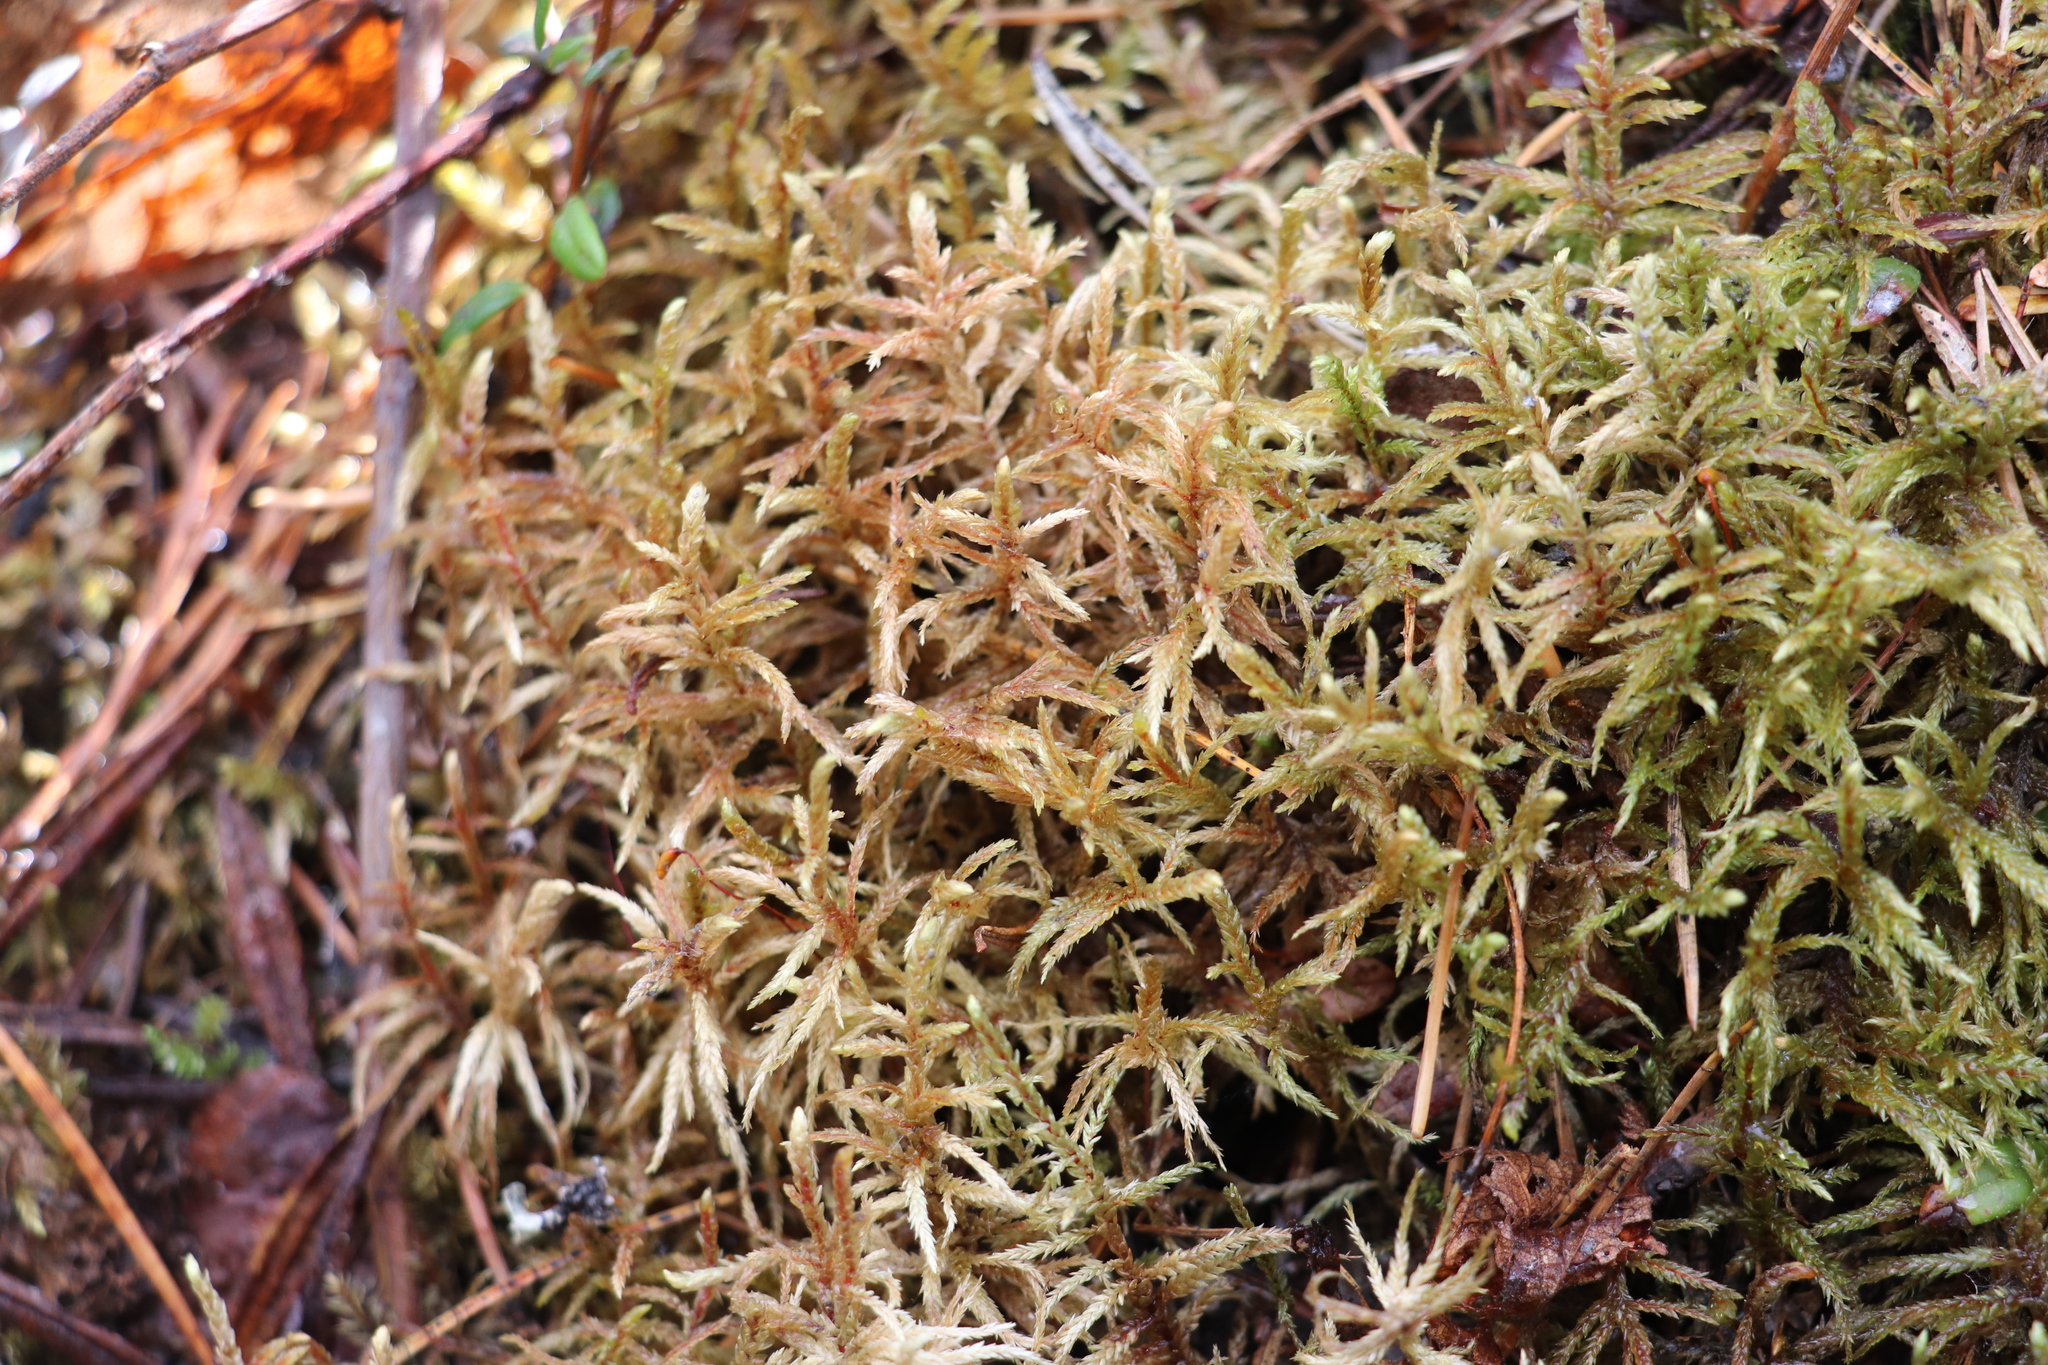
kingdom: Plantae
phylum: Bryophyta
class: Bryopsida
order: Hypnales
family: Hylocomiaceae
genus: Pleurozium
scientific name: Pleurozium schreberi
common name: Red-stemmed feather moss
